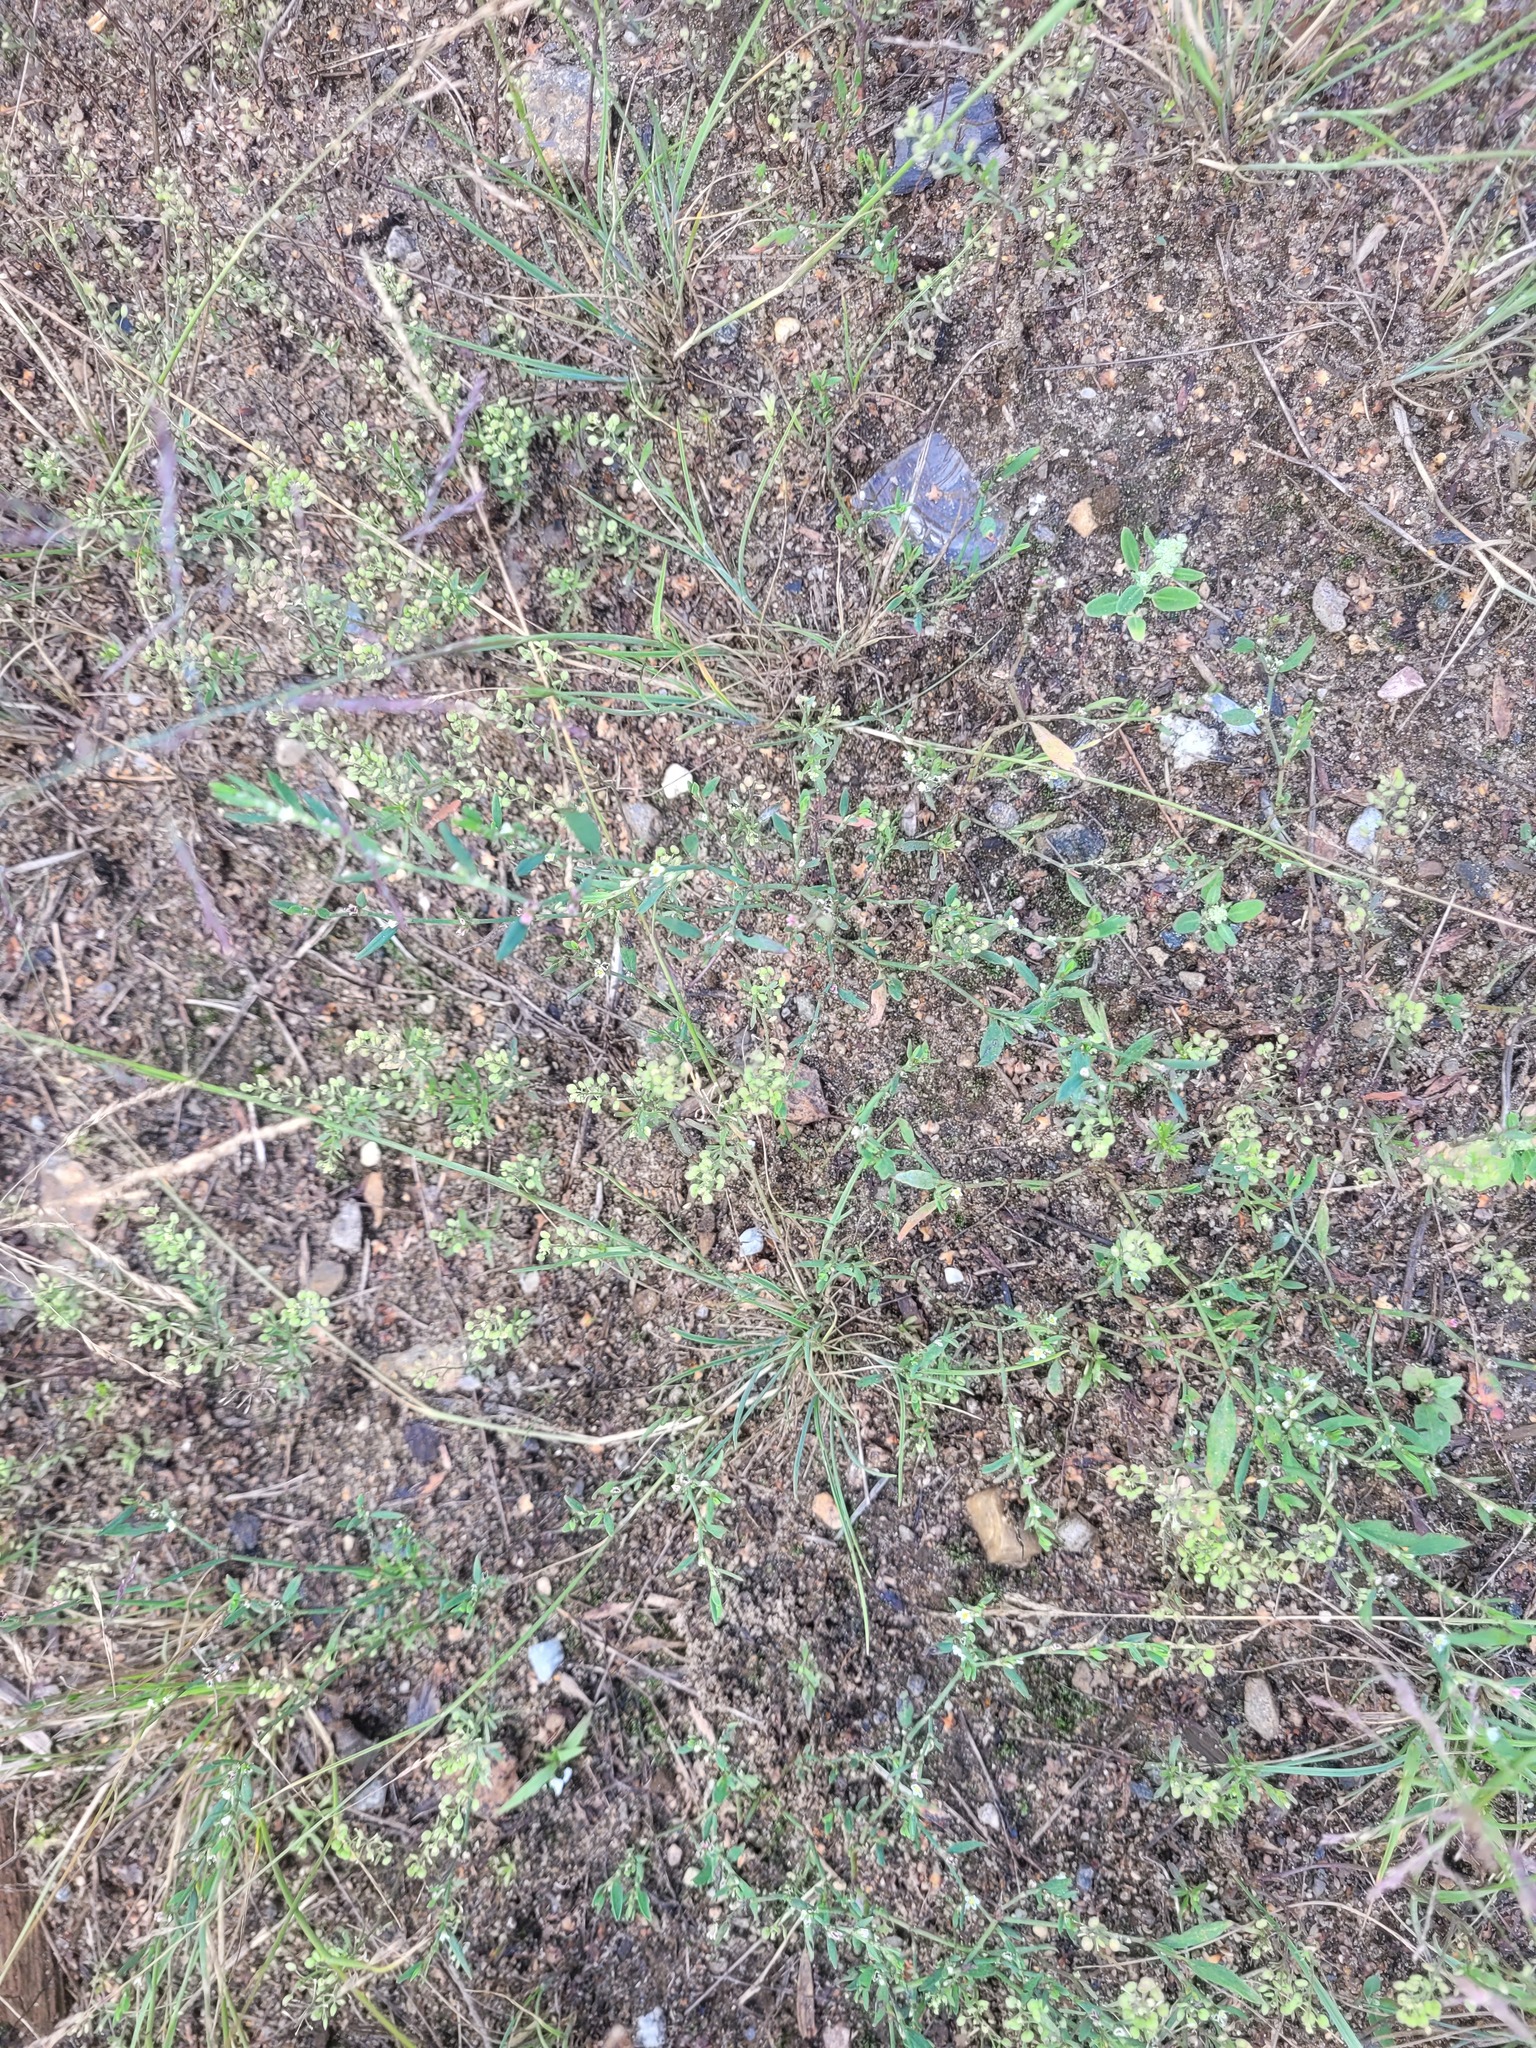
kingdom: Plantae
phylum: Tracheophyta
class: Magnoliopsida
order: Brassicales
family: Brassicaceae
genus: Lepidium
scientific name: Lepidium ruderale
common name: Narrow-leaved pepperwort
